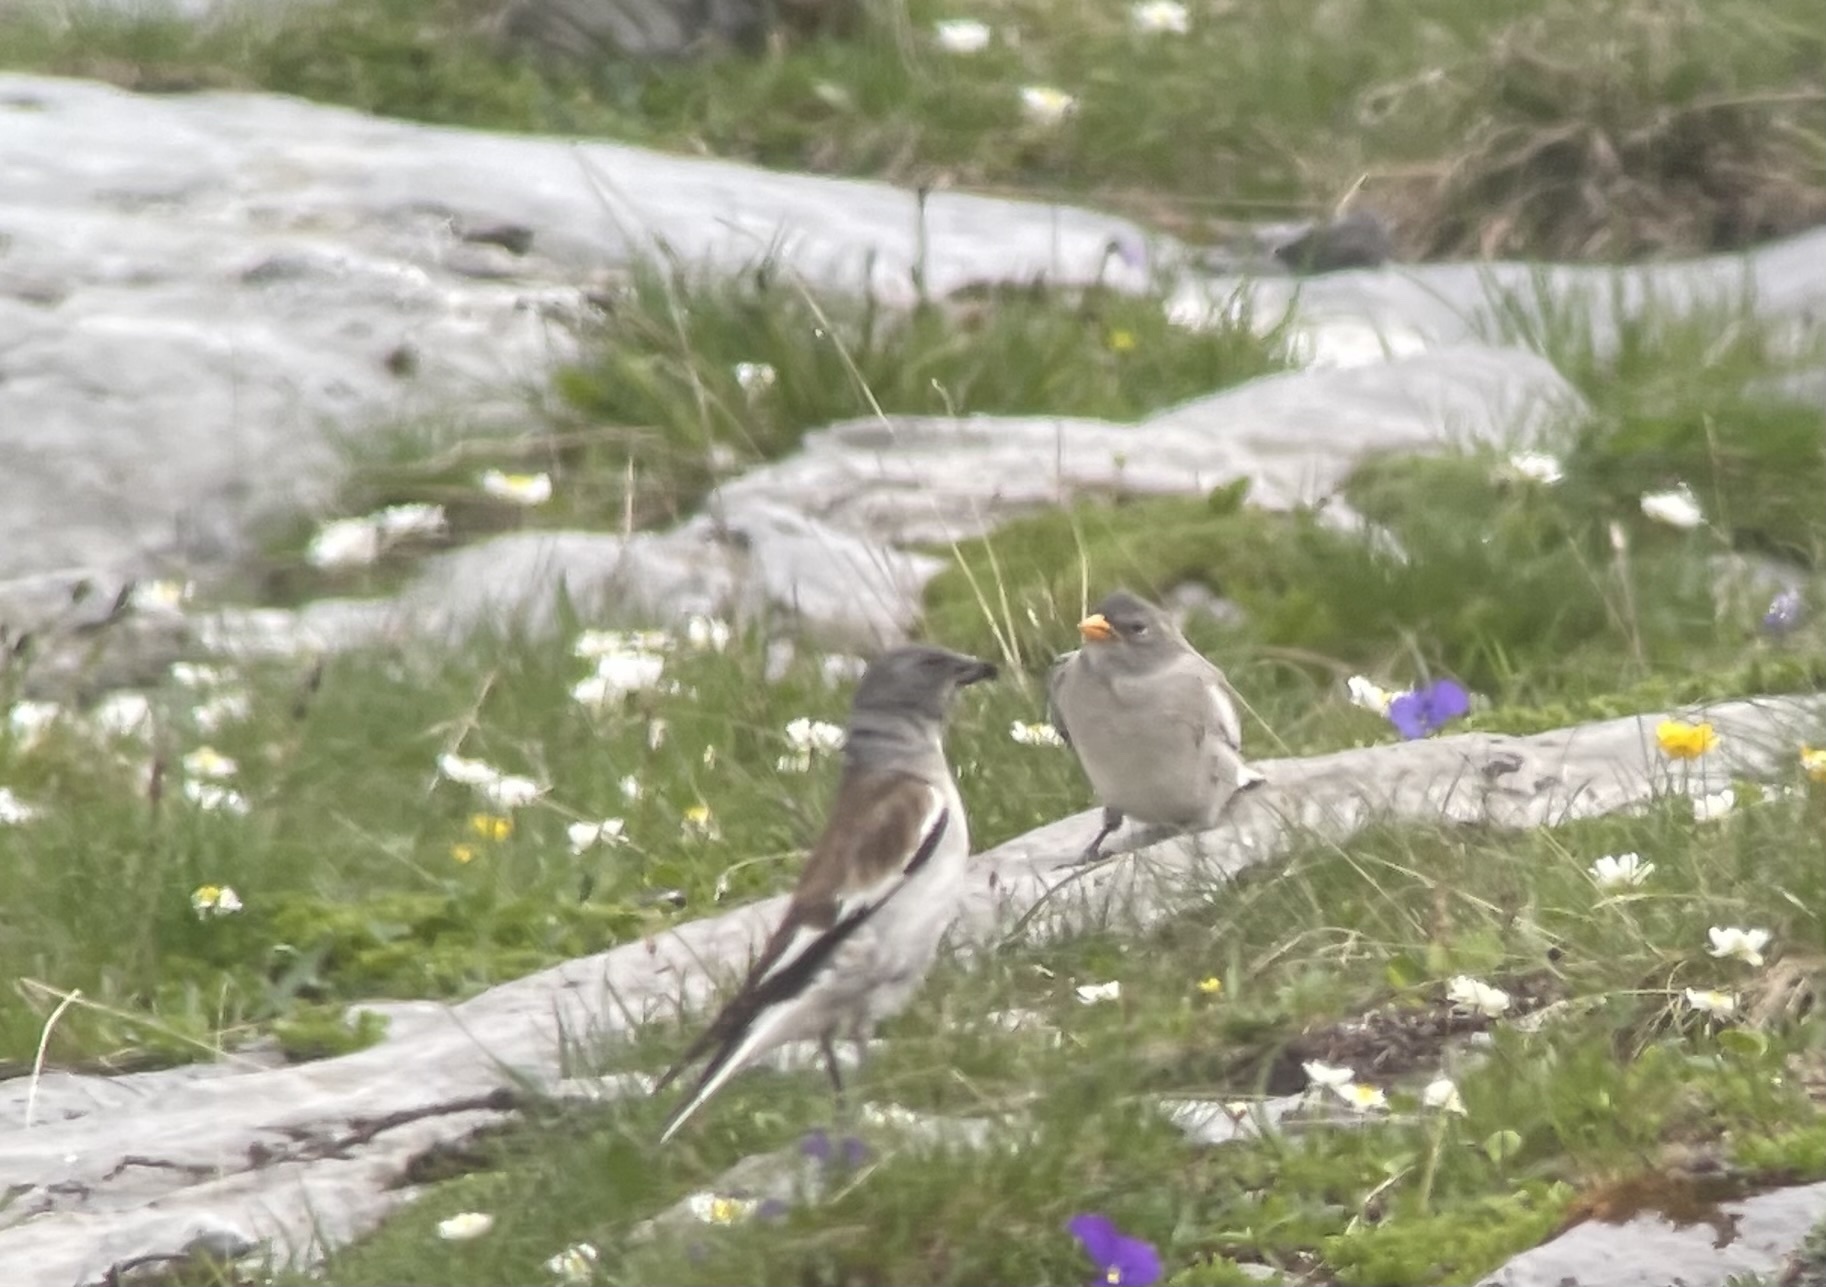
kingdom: Animalia
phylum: Chordata
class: Aves
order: Passeriformes
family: Passeridae
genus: Montifringilla
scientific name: Montifringilla nivalis
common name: White-winged snowfinch
